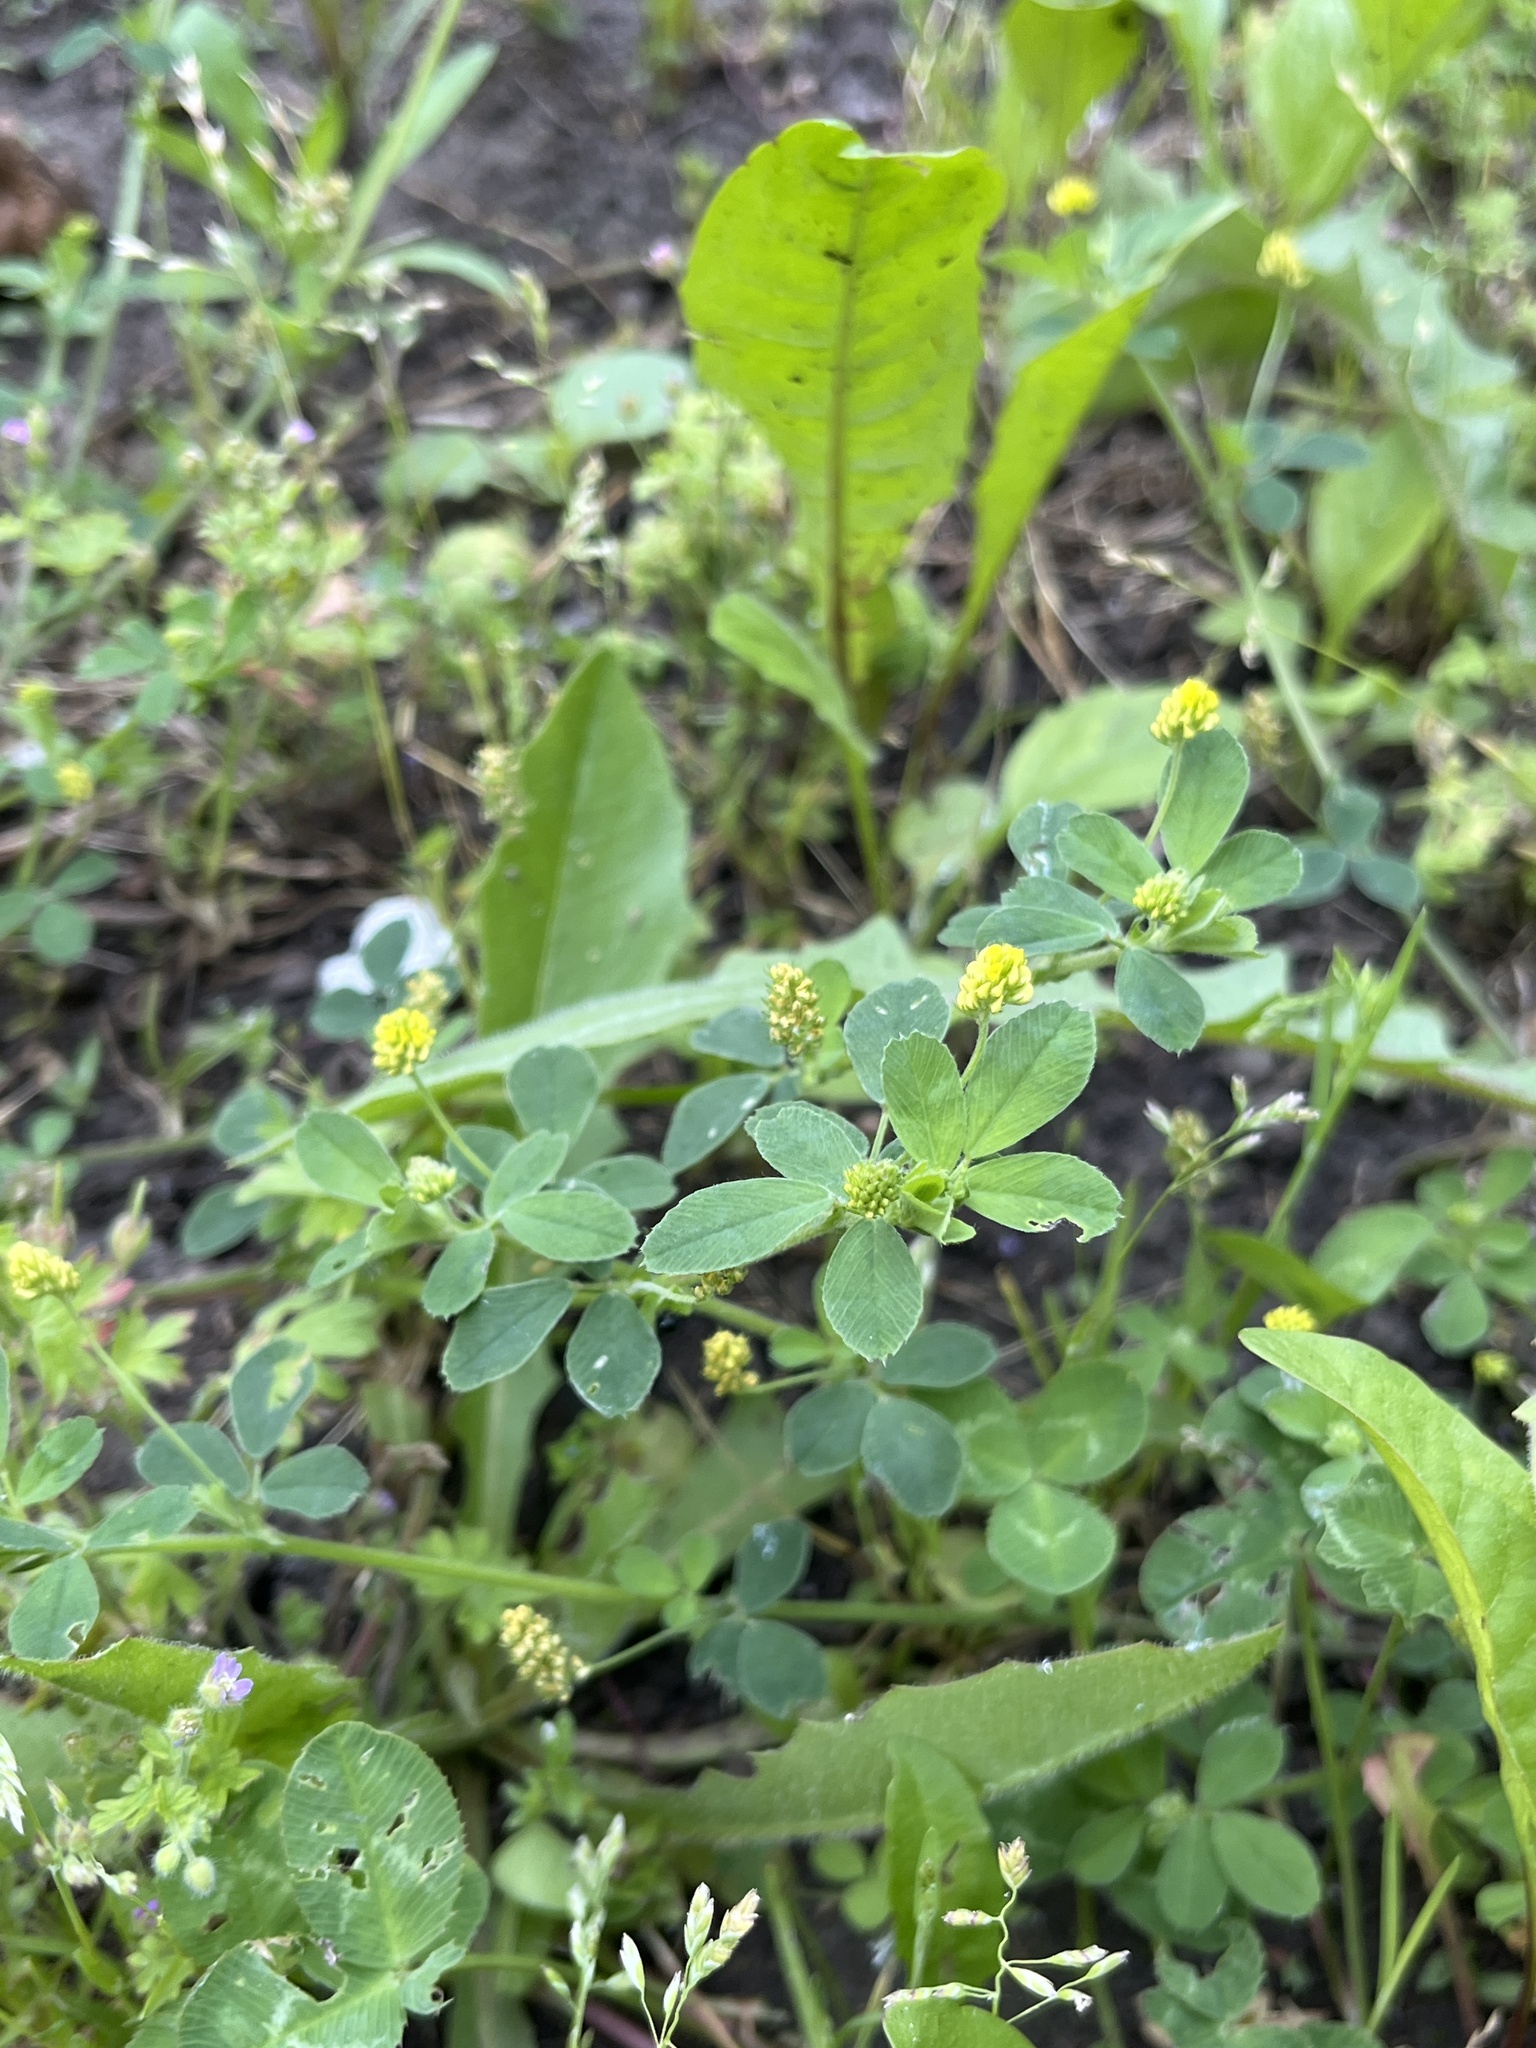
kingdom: Plantae
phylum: Tracheophyta
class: Magnoliopsida
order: Fabales
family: Fabaceae
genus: Medicago
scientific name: Medicago lupulina
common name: Black medick
